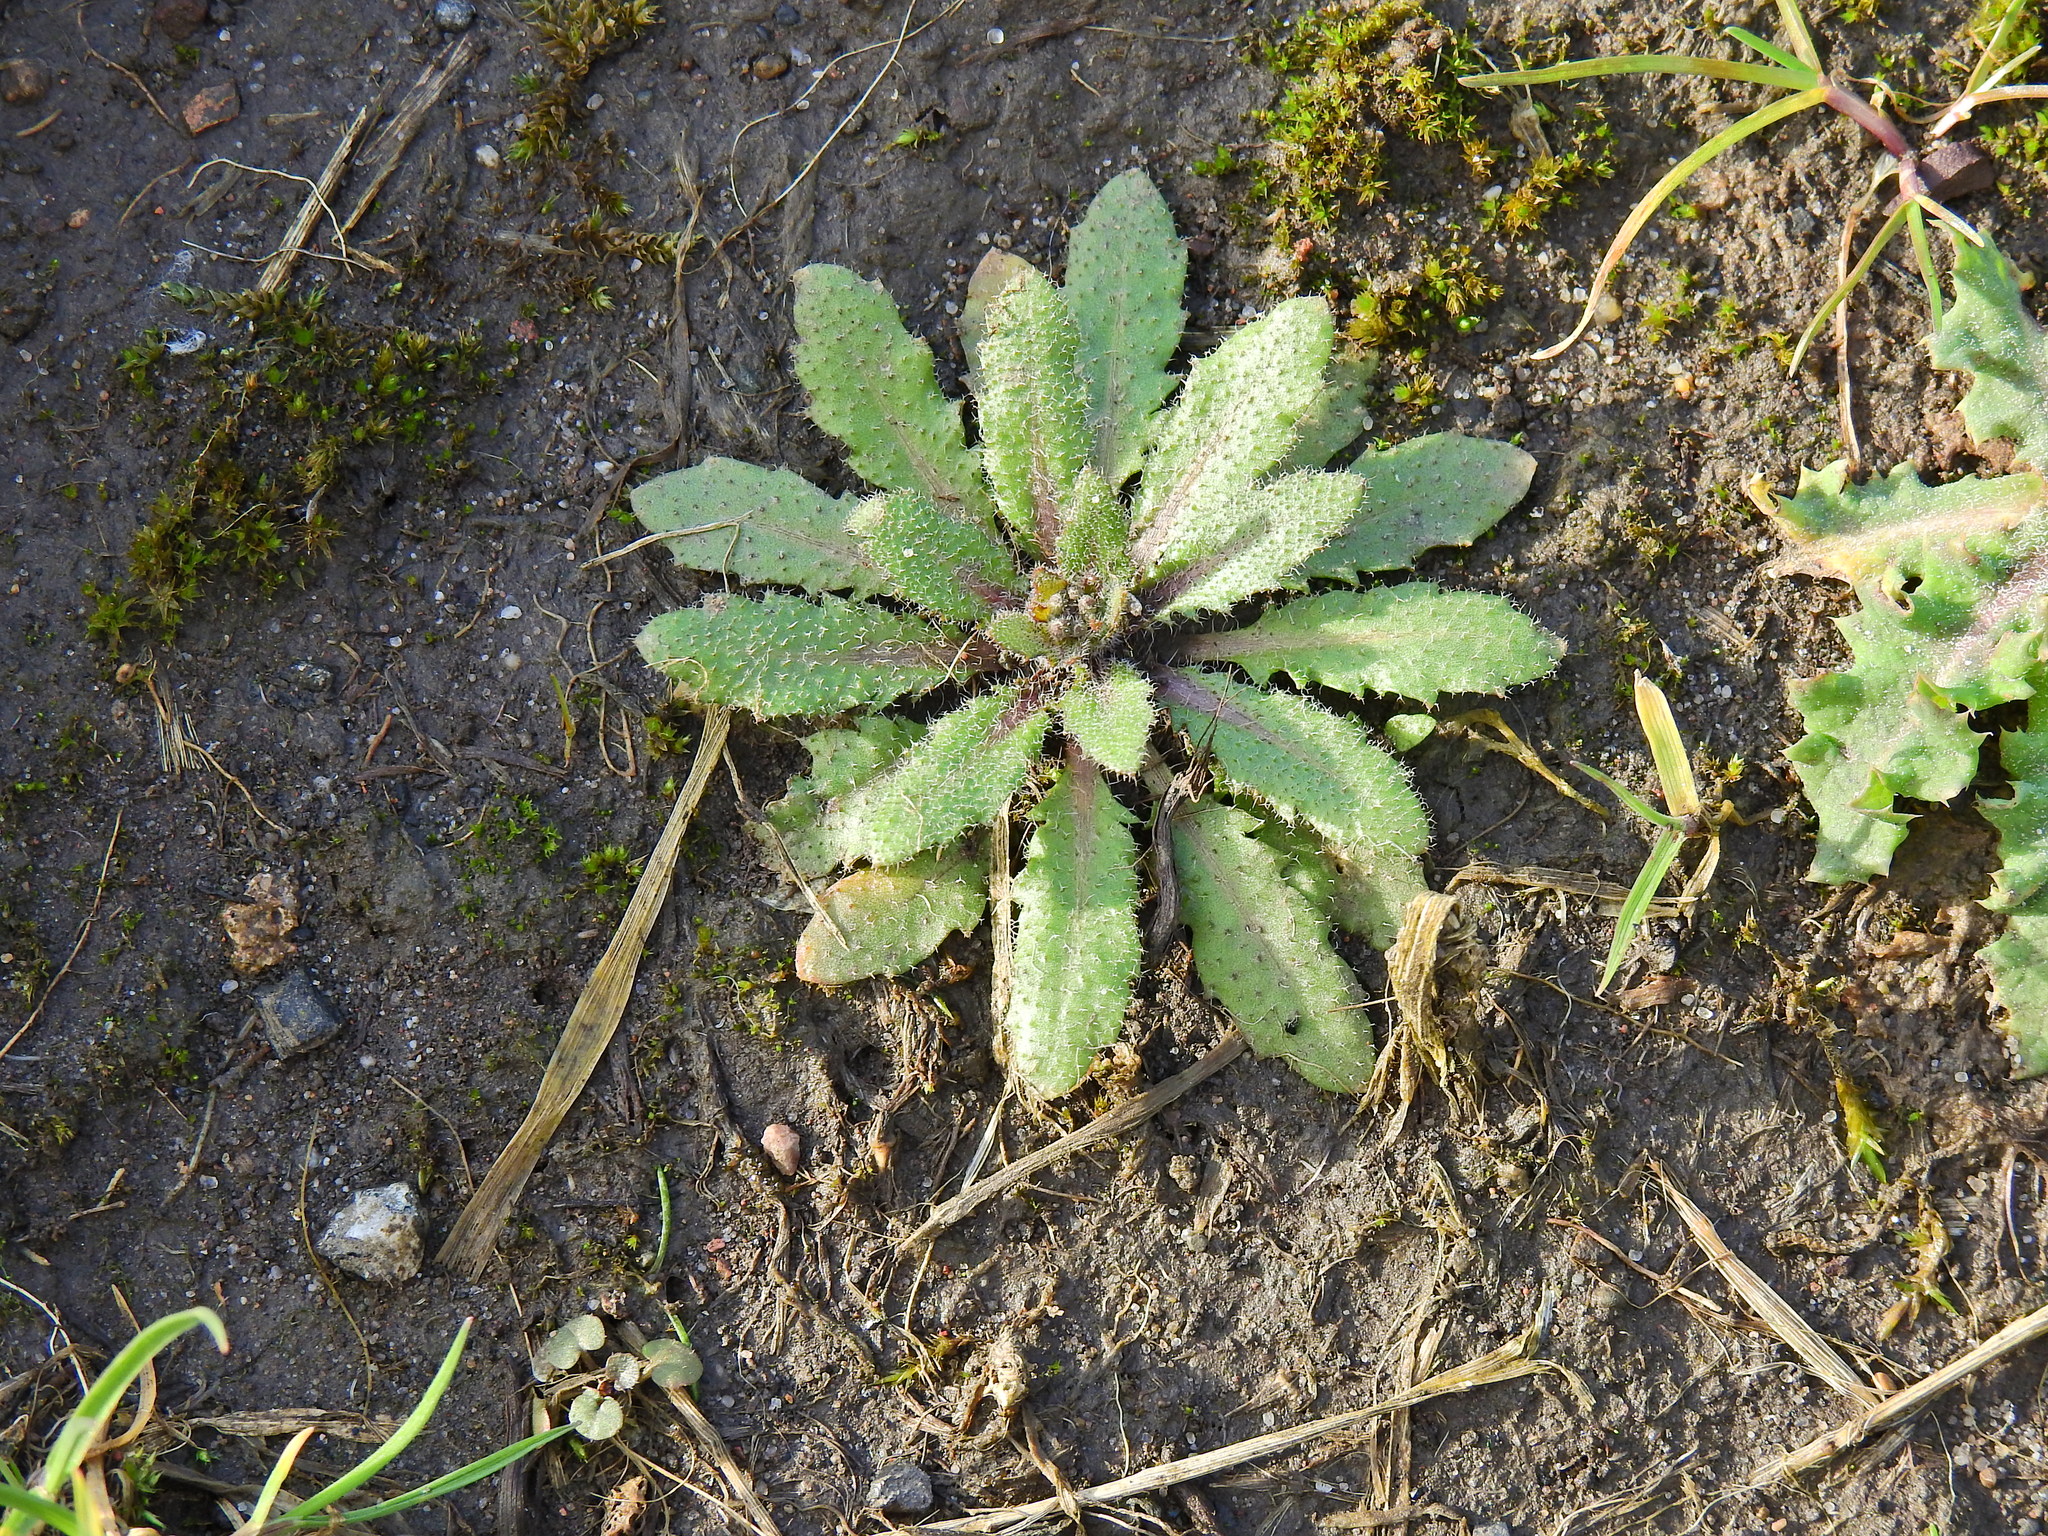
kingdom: Plantae
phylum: Tracheophyta
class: Magnoliopsida
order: Brassicales
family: Brassicaceae
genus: Arabidopsis
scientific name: Arabidopsis thaliana
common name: Thale cress
